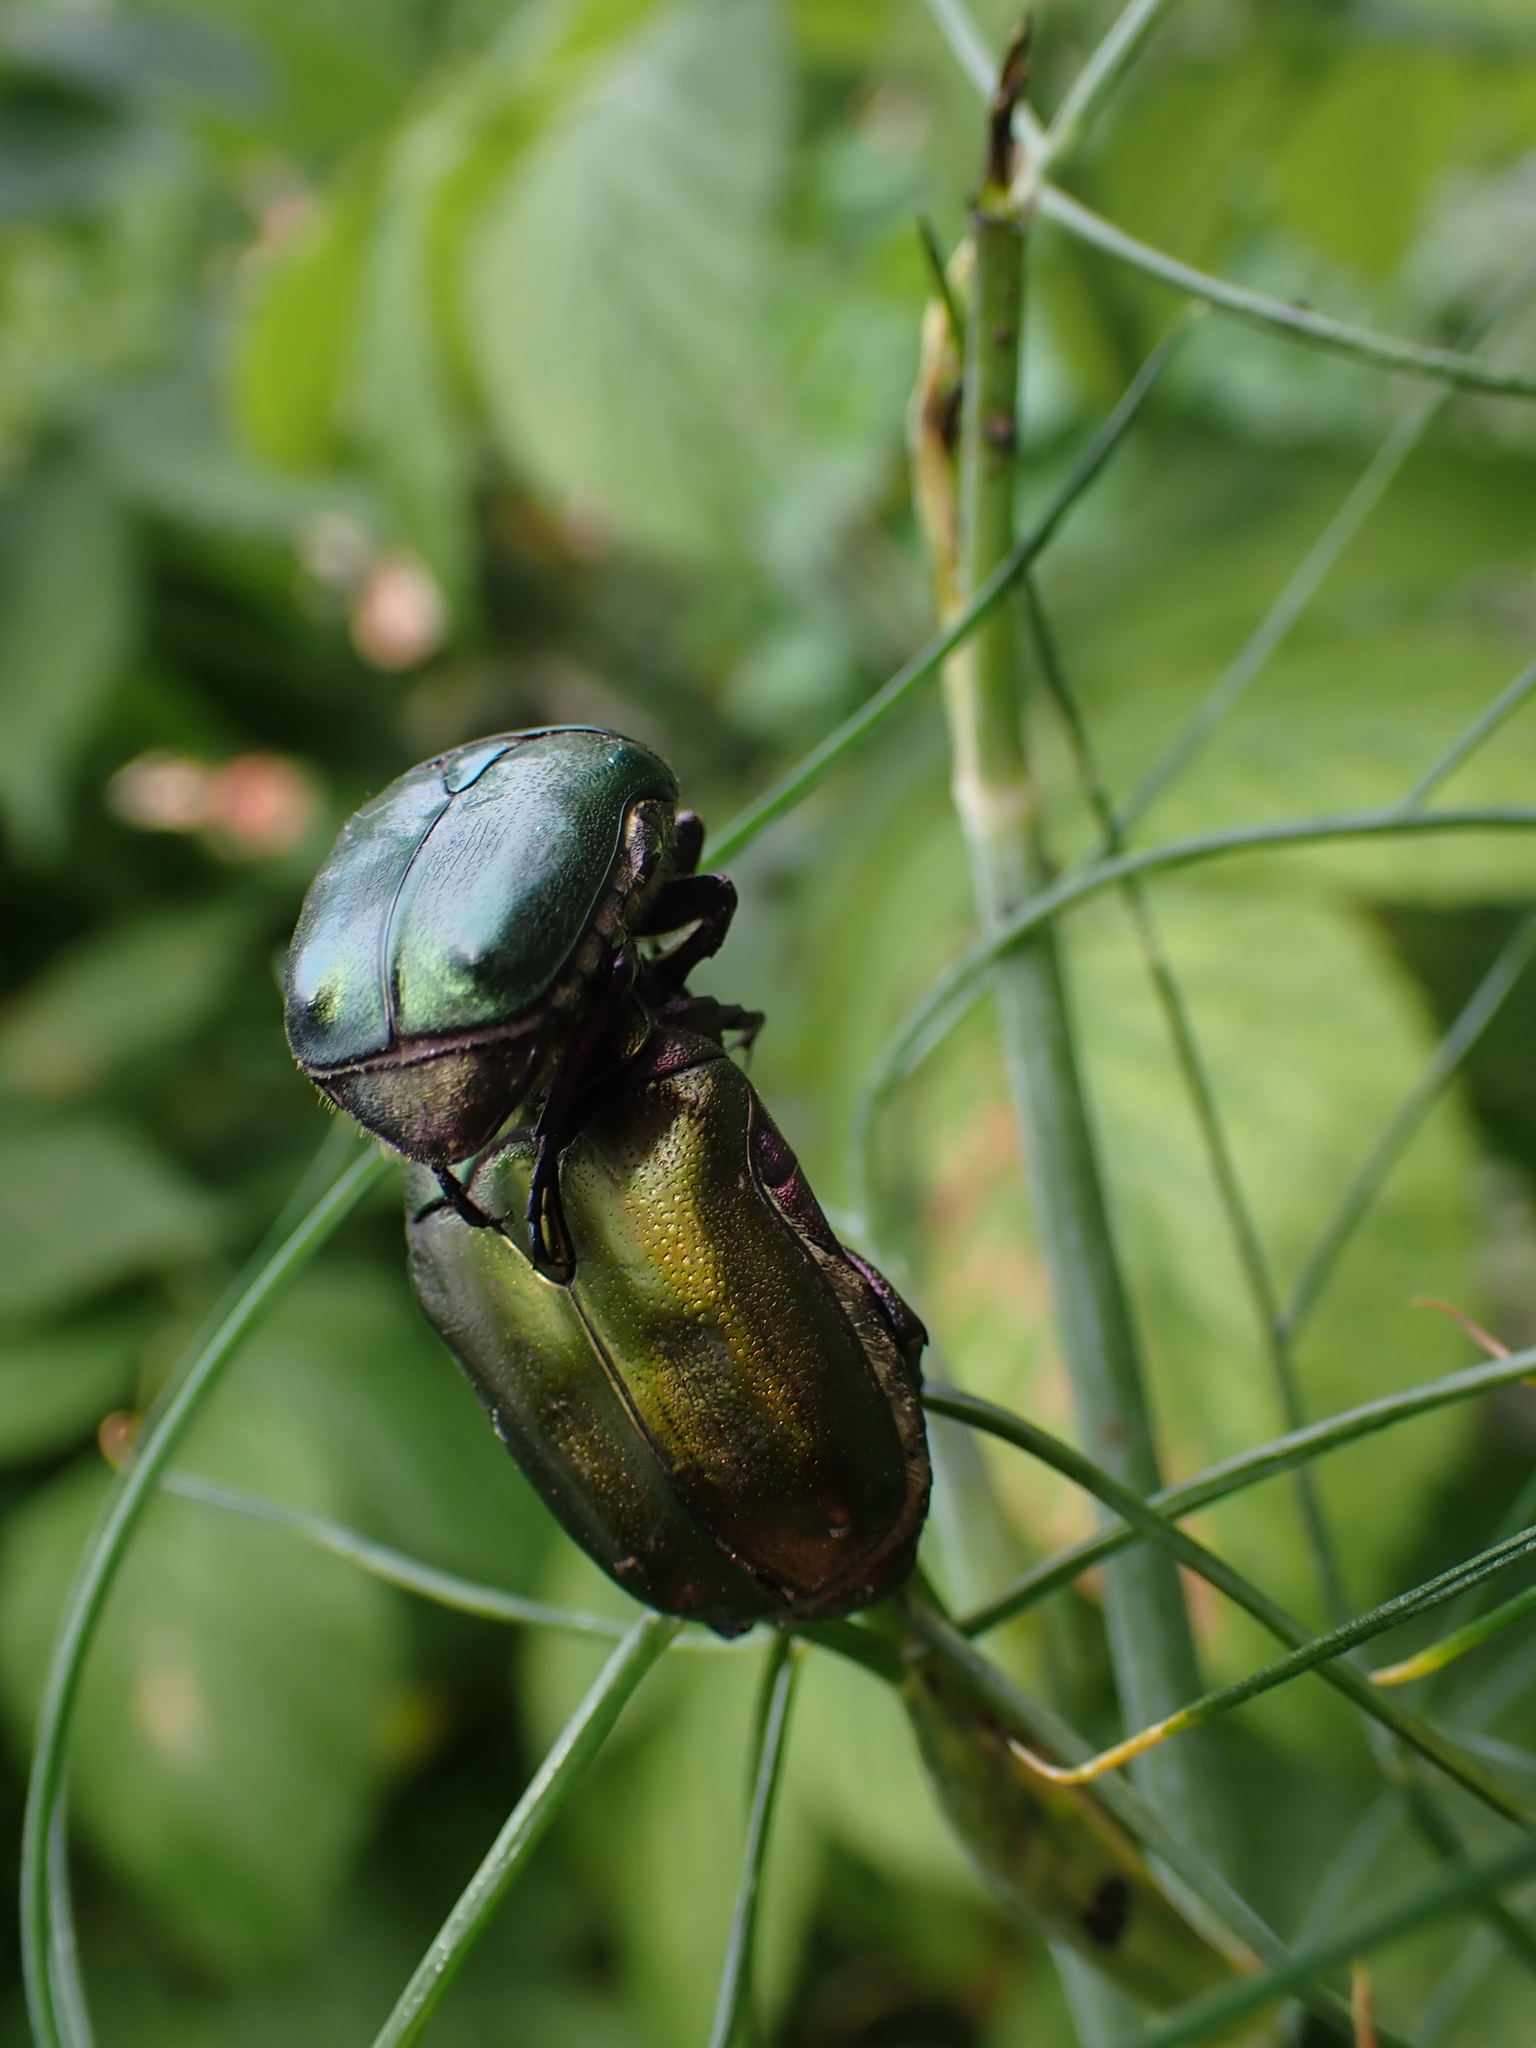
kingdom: Animalia
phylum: Arthropoda
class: Insecta
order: Coleoptera
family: Scarabaeidae
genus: Protaetia
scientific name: Protaetia cuprea
